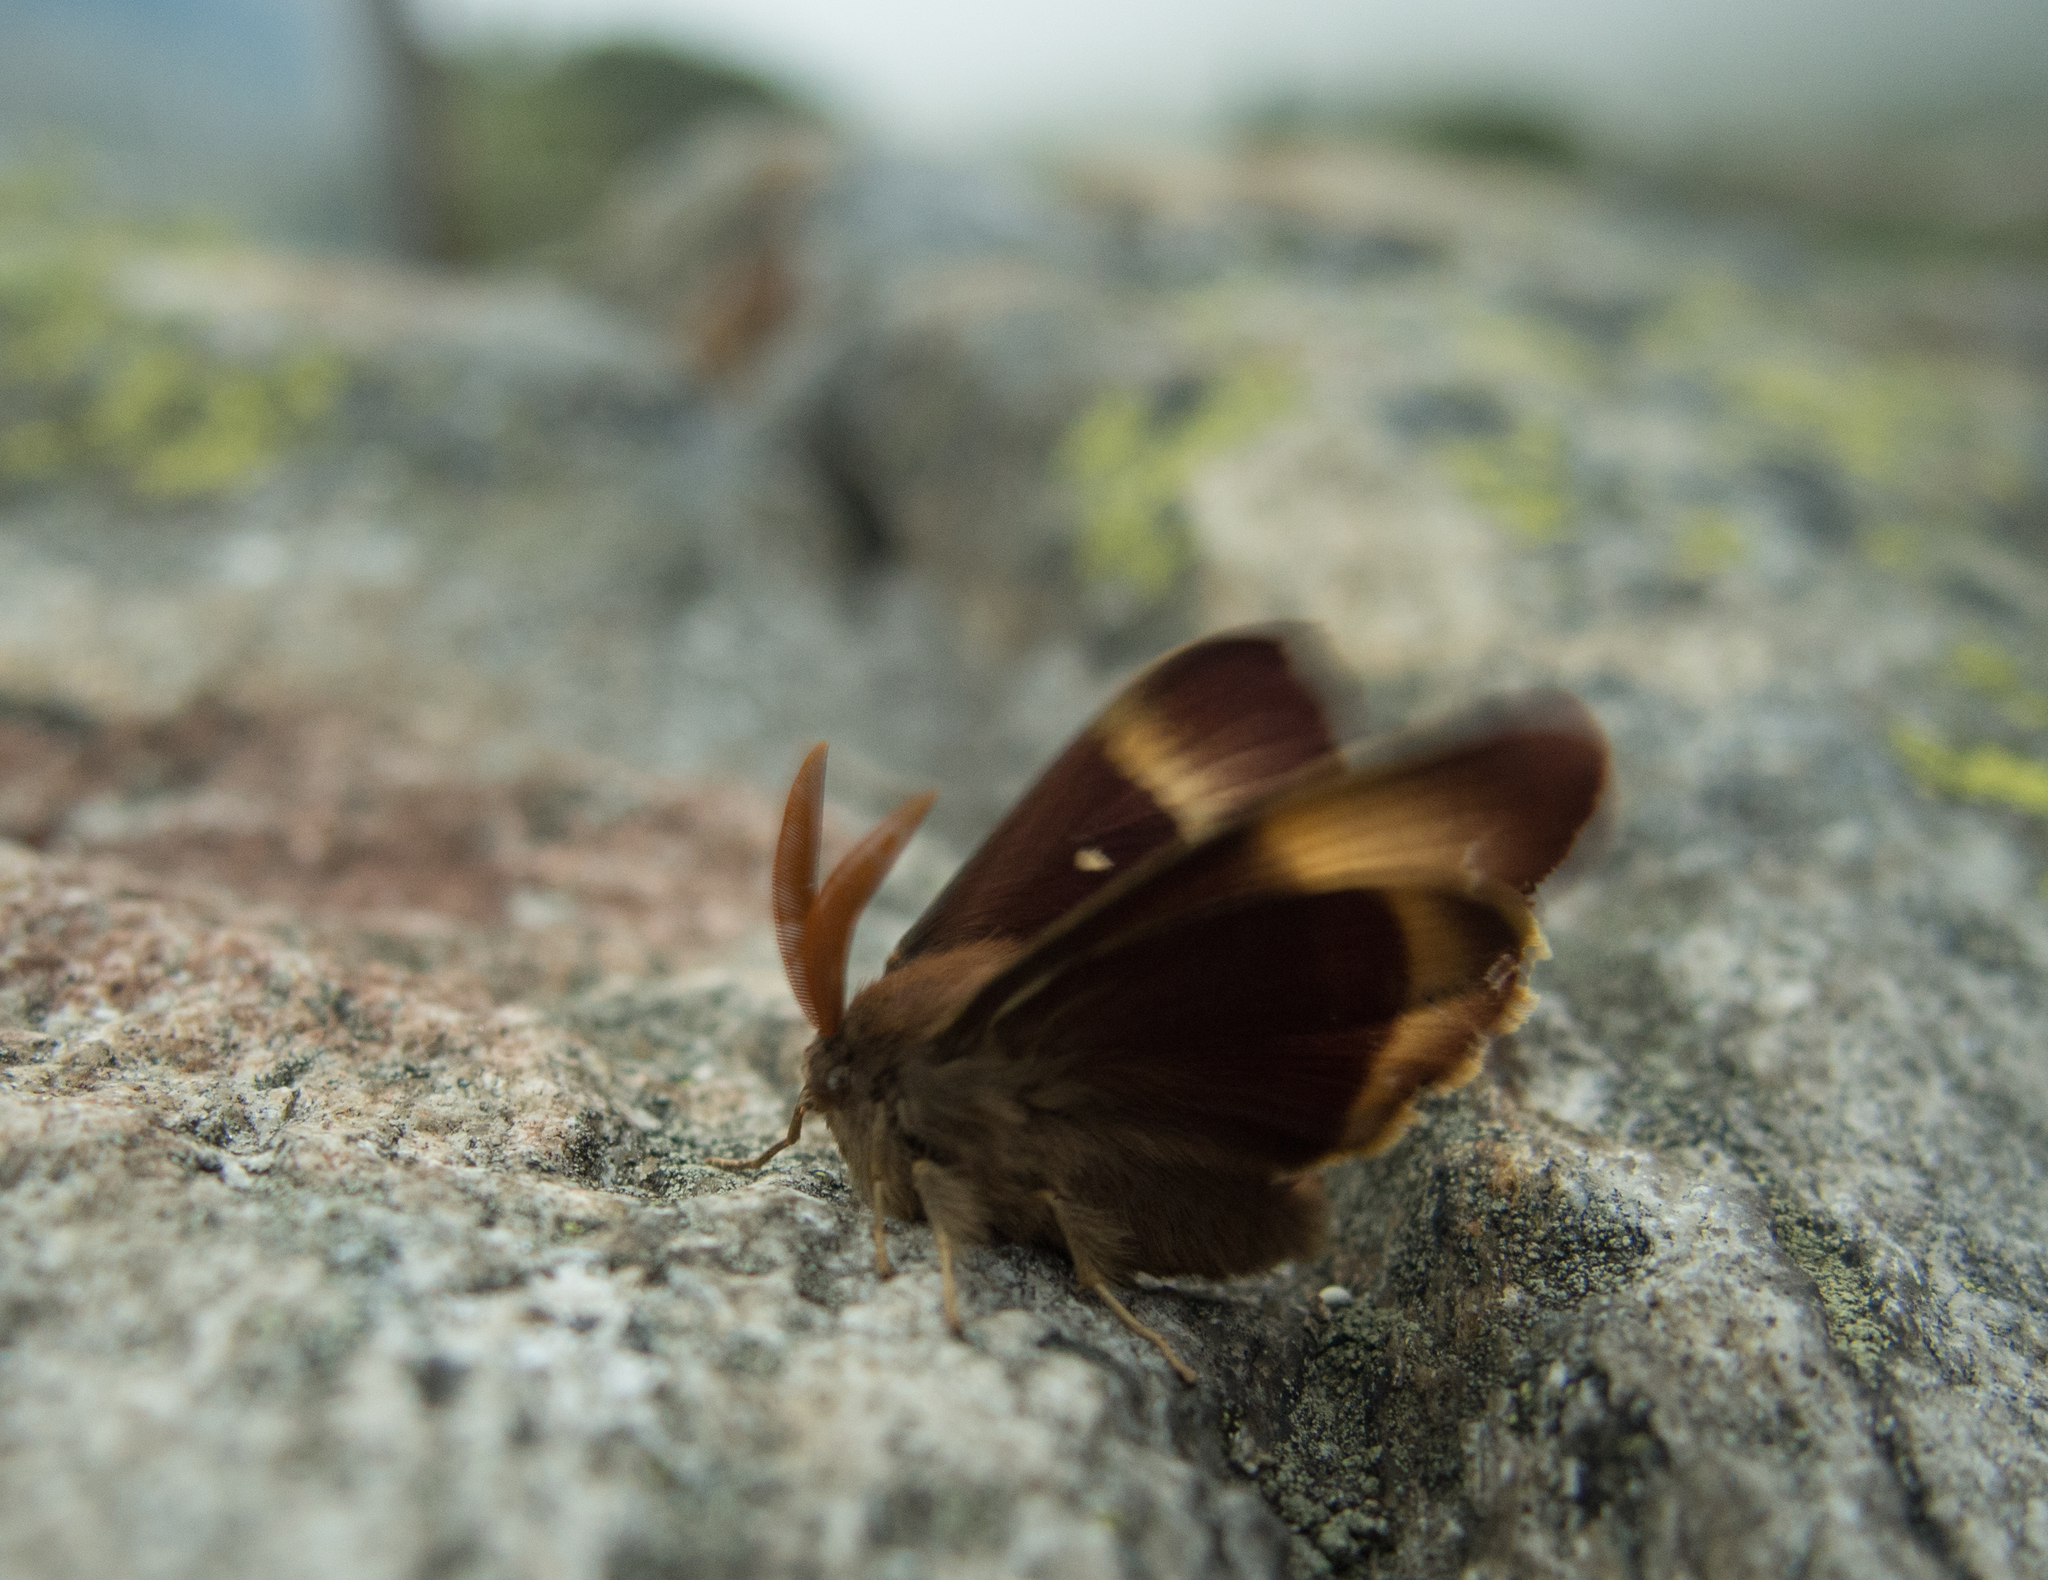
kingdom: Animalia
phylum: Arthropoda
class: Insecta
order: Lepidoptera
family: Lasiocampidae
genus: Lasiocampa
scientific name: Lasiocampa quercus
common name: Oak eggar
